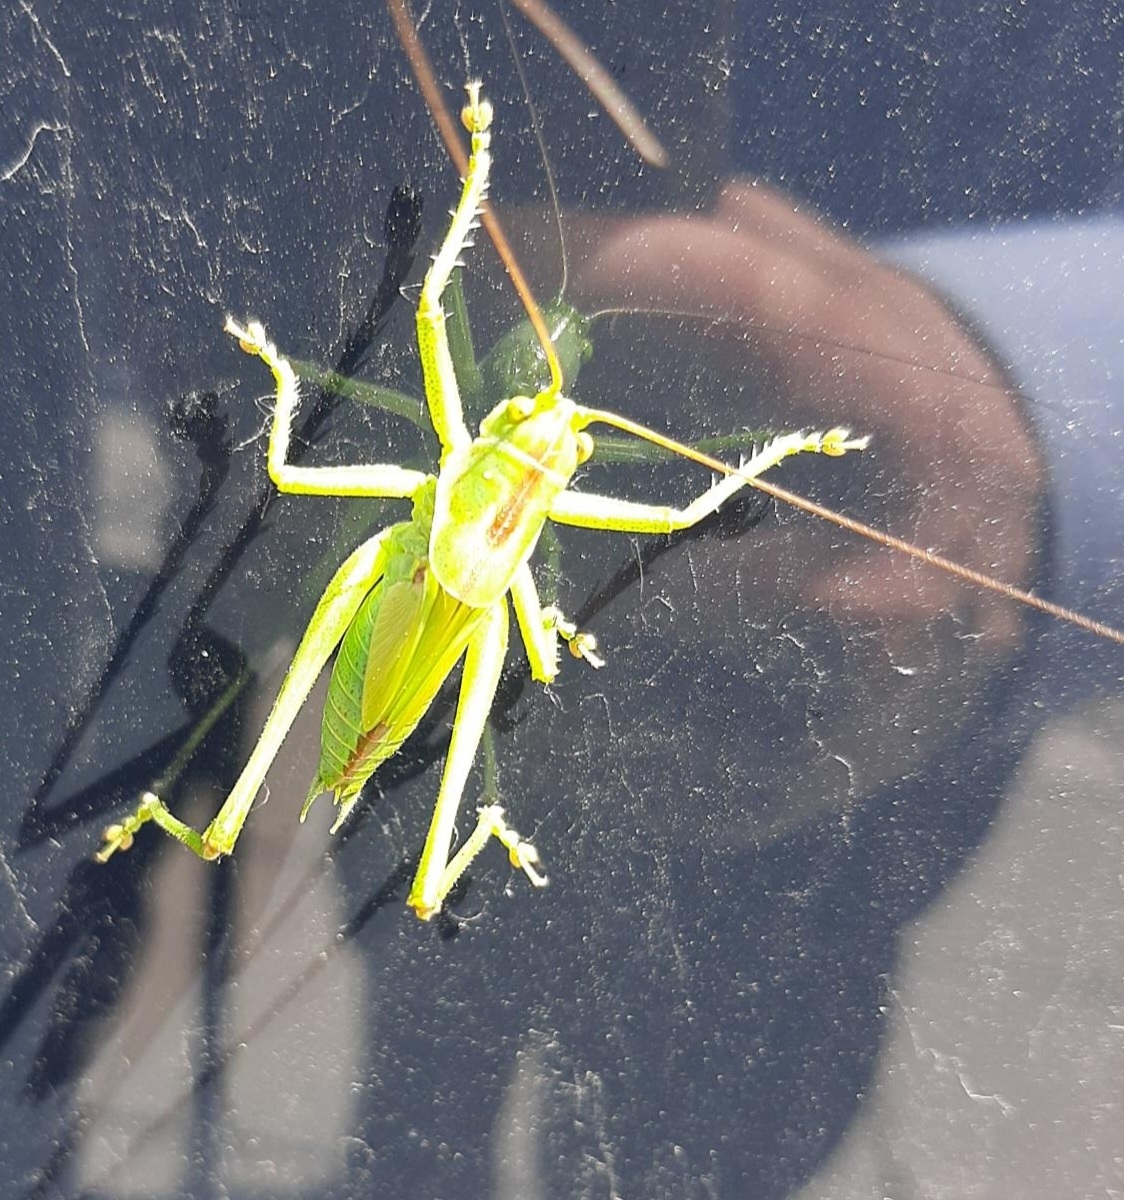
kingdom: Animalia
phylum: Arthropoda
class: Insecta
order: Orthoptera
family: Tettigoniidae
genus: Tettigonia
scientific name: Tettigonia viridissima
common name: Great green bush-cricket
